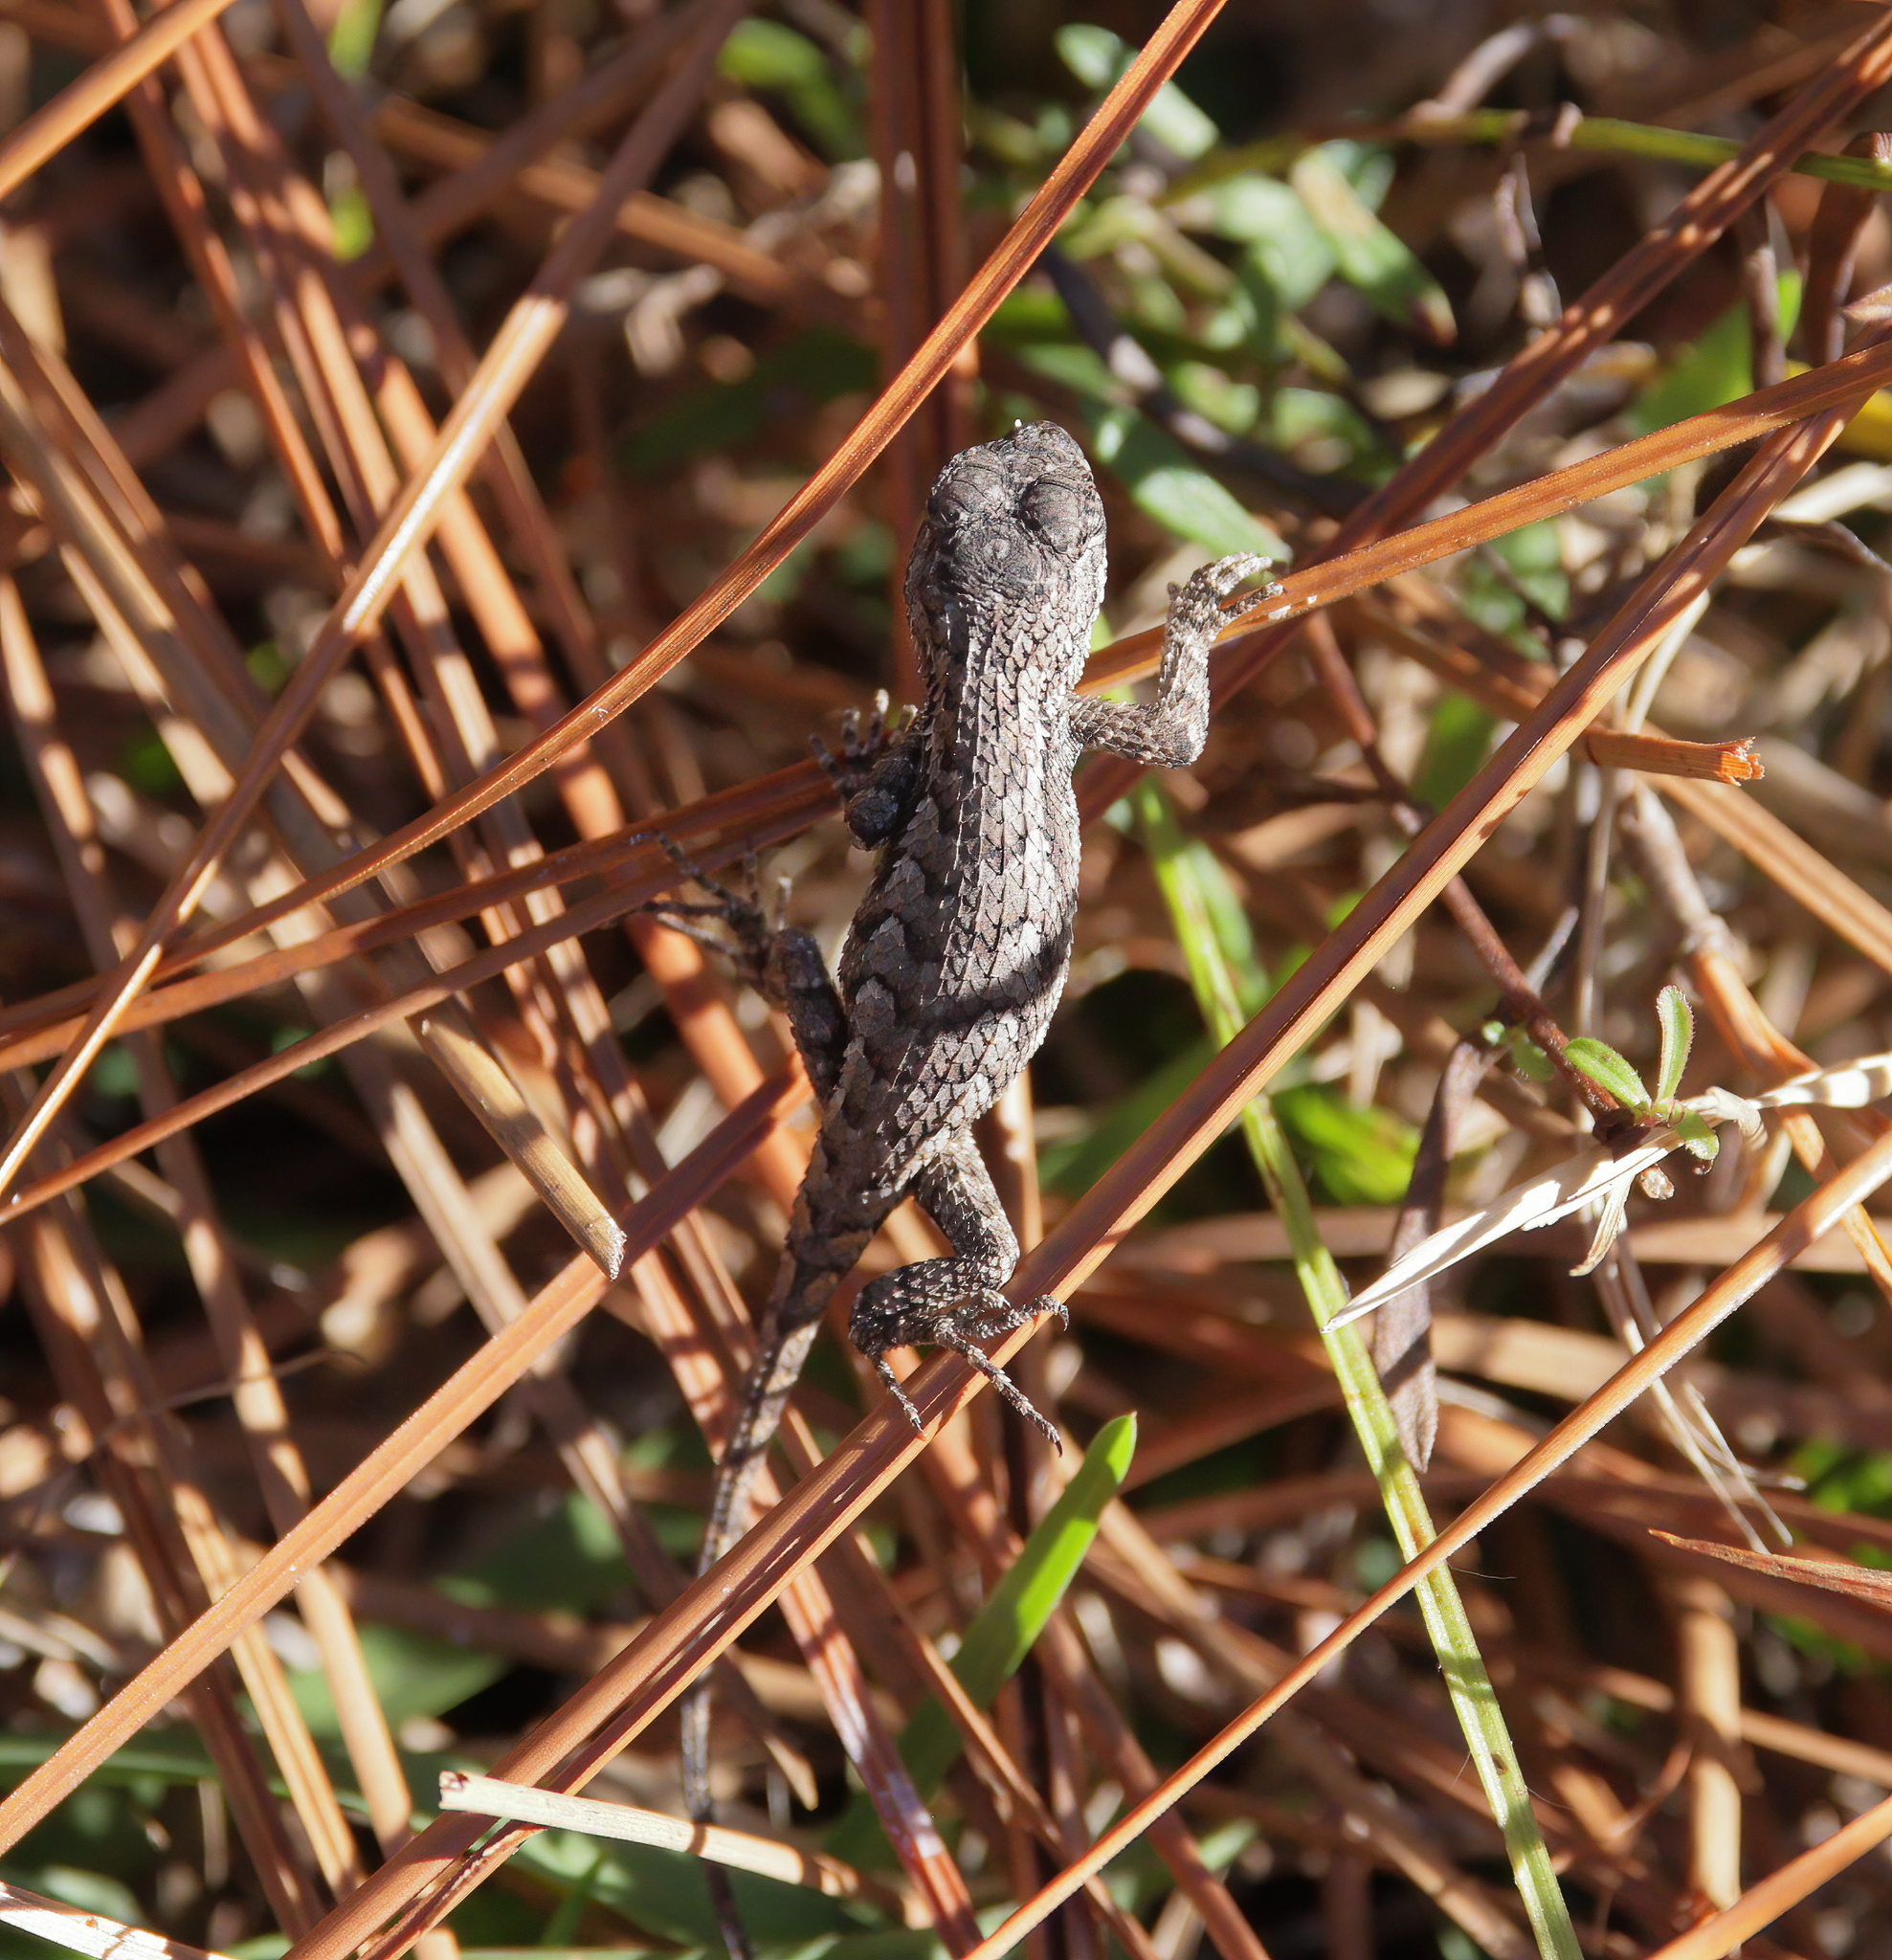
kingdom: Animalia
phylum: Chordata
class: Squamata
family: Phrynosomatidae
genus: Sceloporus
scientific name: Sceloporus undulatus
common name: Eastern fence lizard
